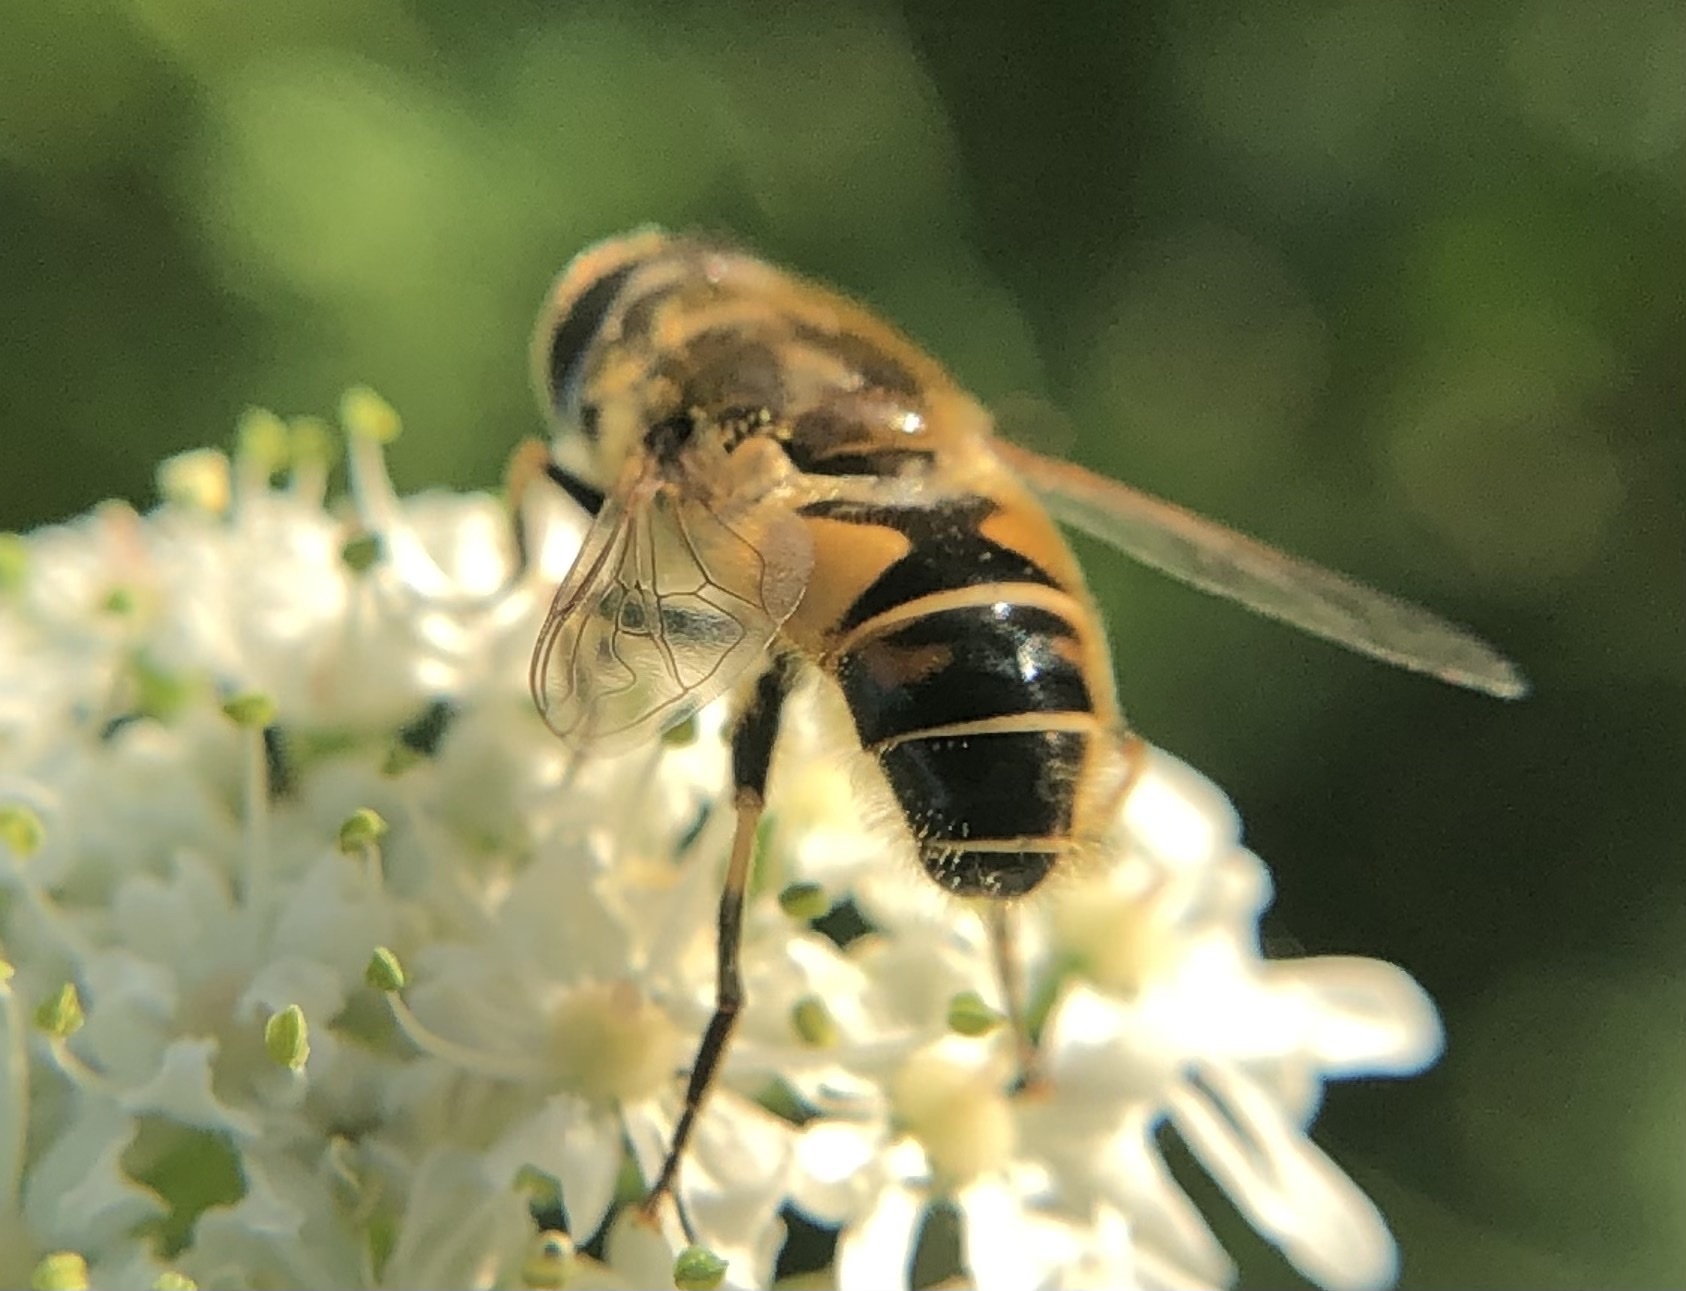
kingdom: Animalia
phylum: Arthropoda
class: Insecta
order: Diptera
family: Syrphidae
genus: Eristalis
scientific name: Eristalis nemorum
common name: Orange-spined drone fly
